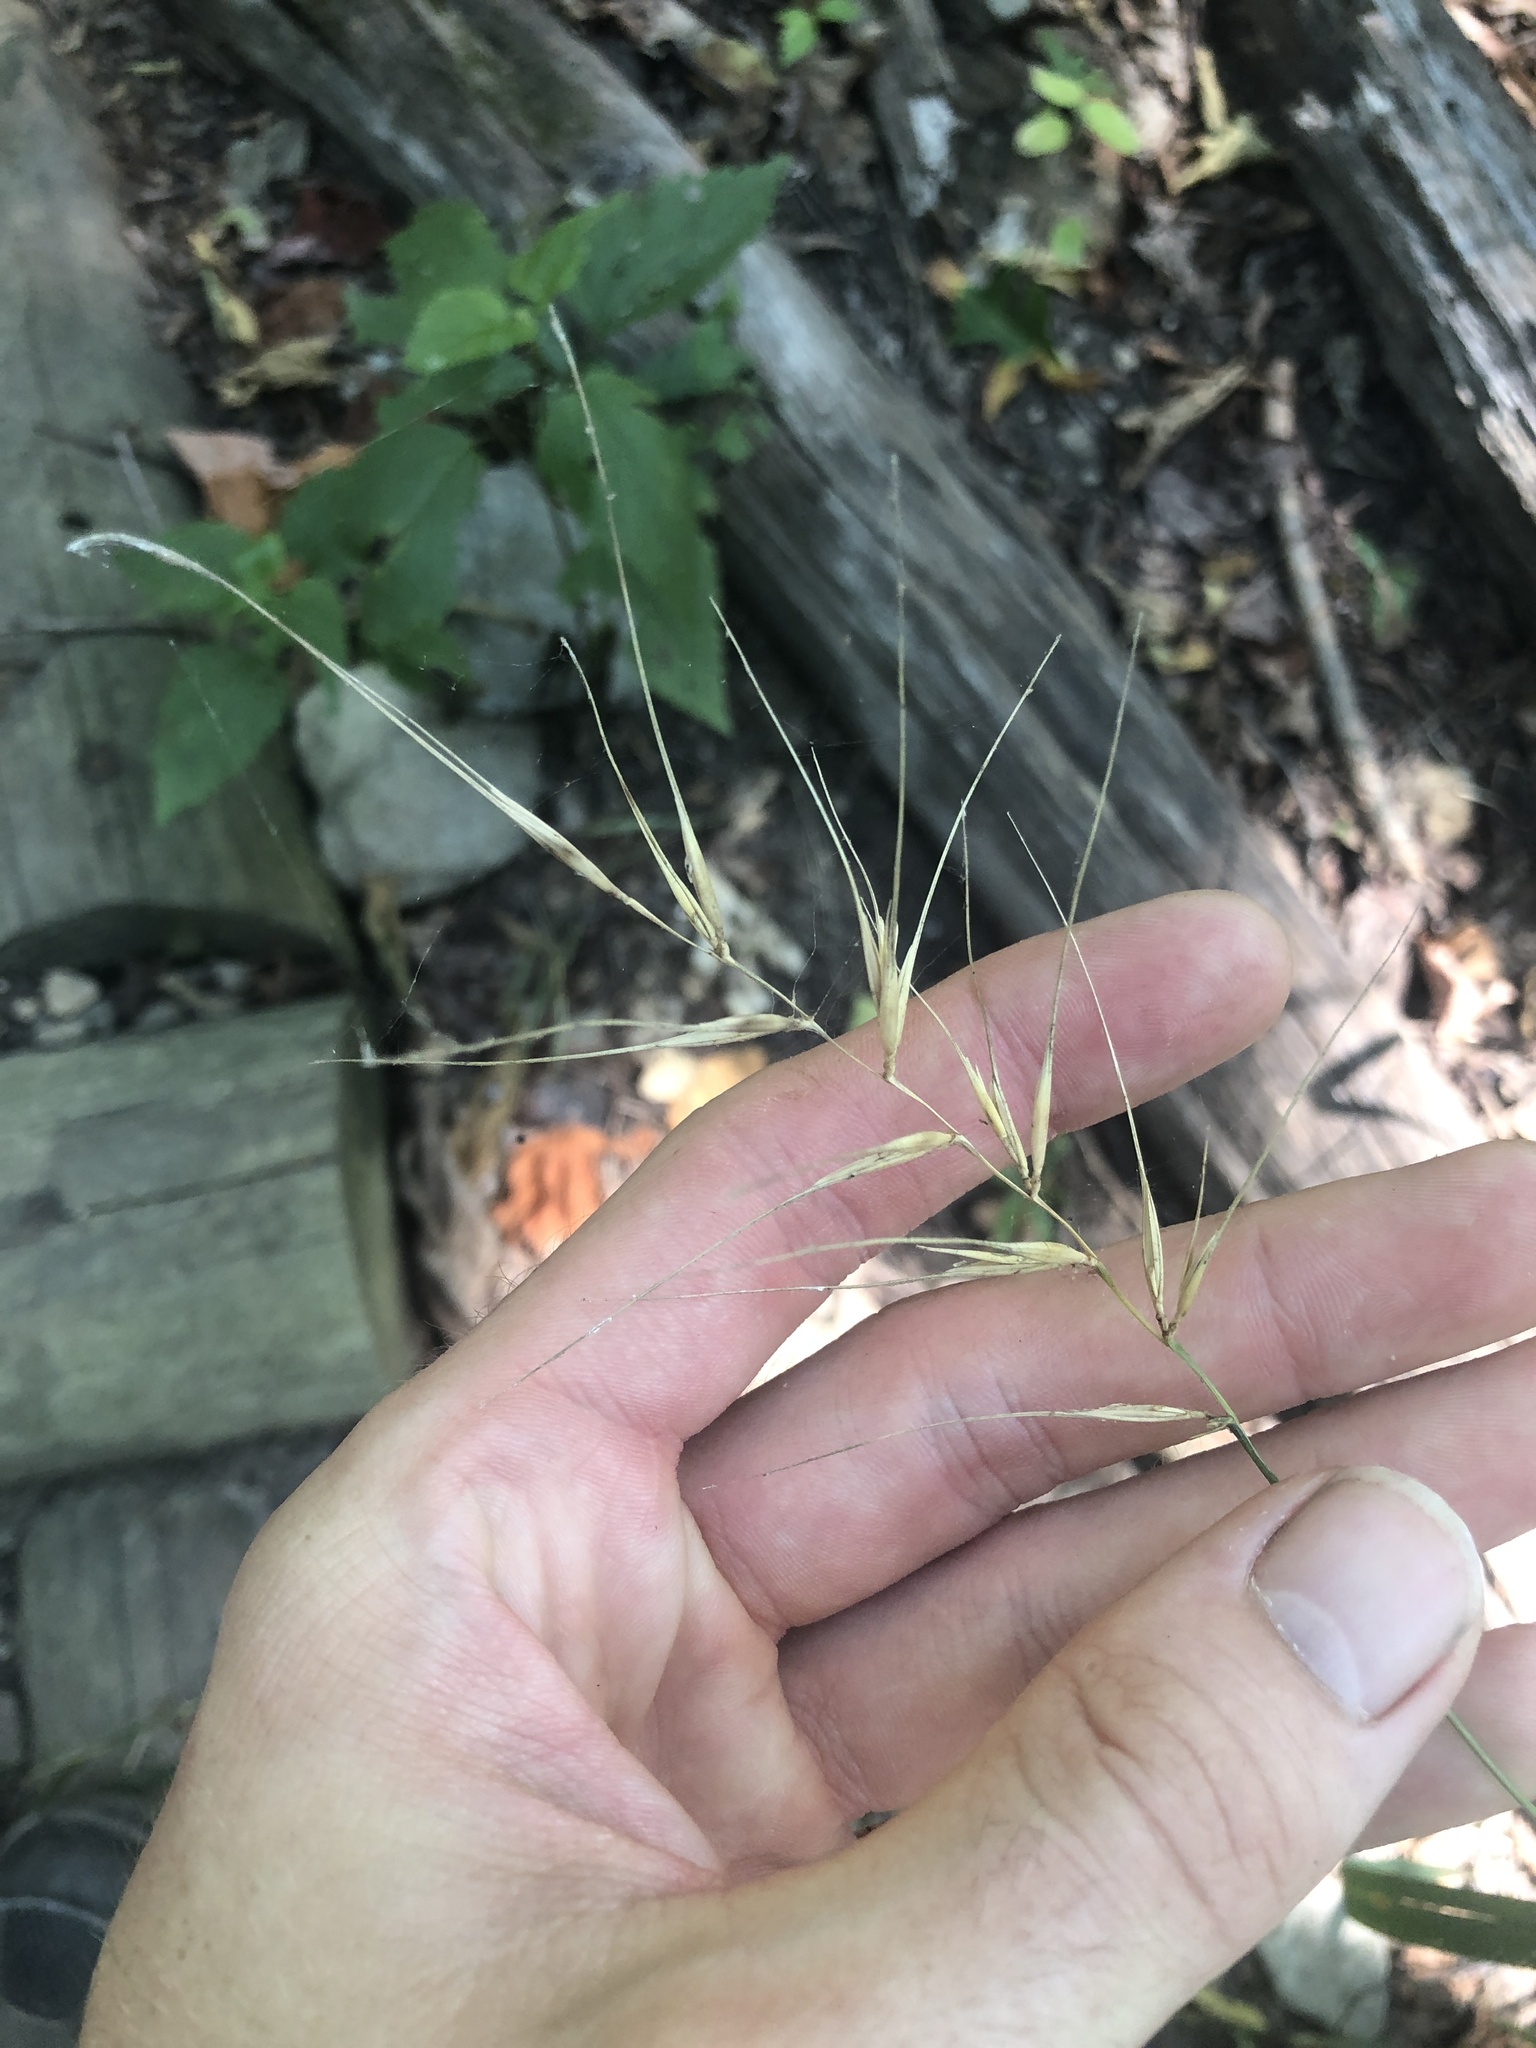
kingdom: Plantae
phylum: Tracheophyta
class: Liliopsida
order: Poales
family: Poaceae
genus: Elymus
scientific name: Elymus hystrix
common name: Bottlebrush grass
